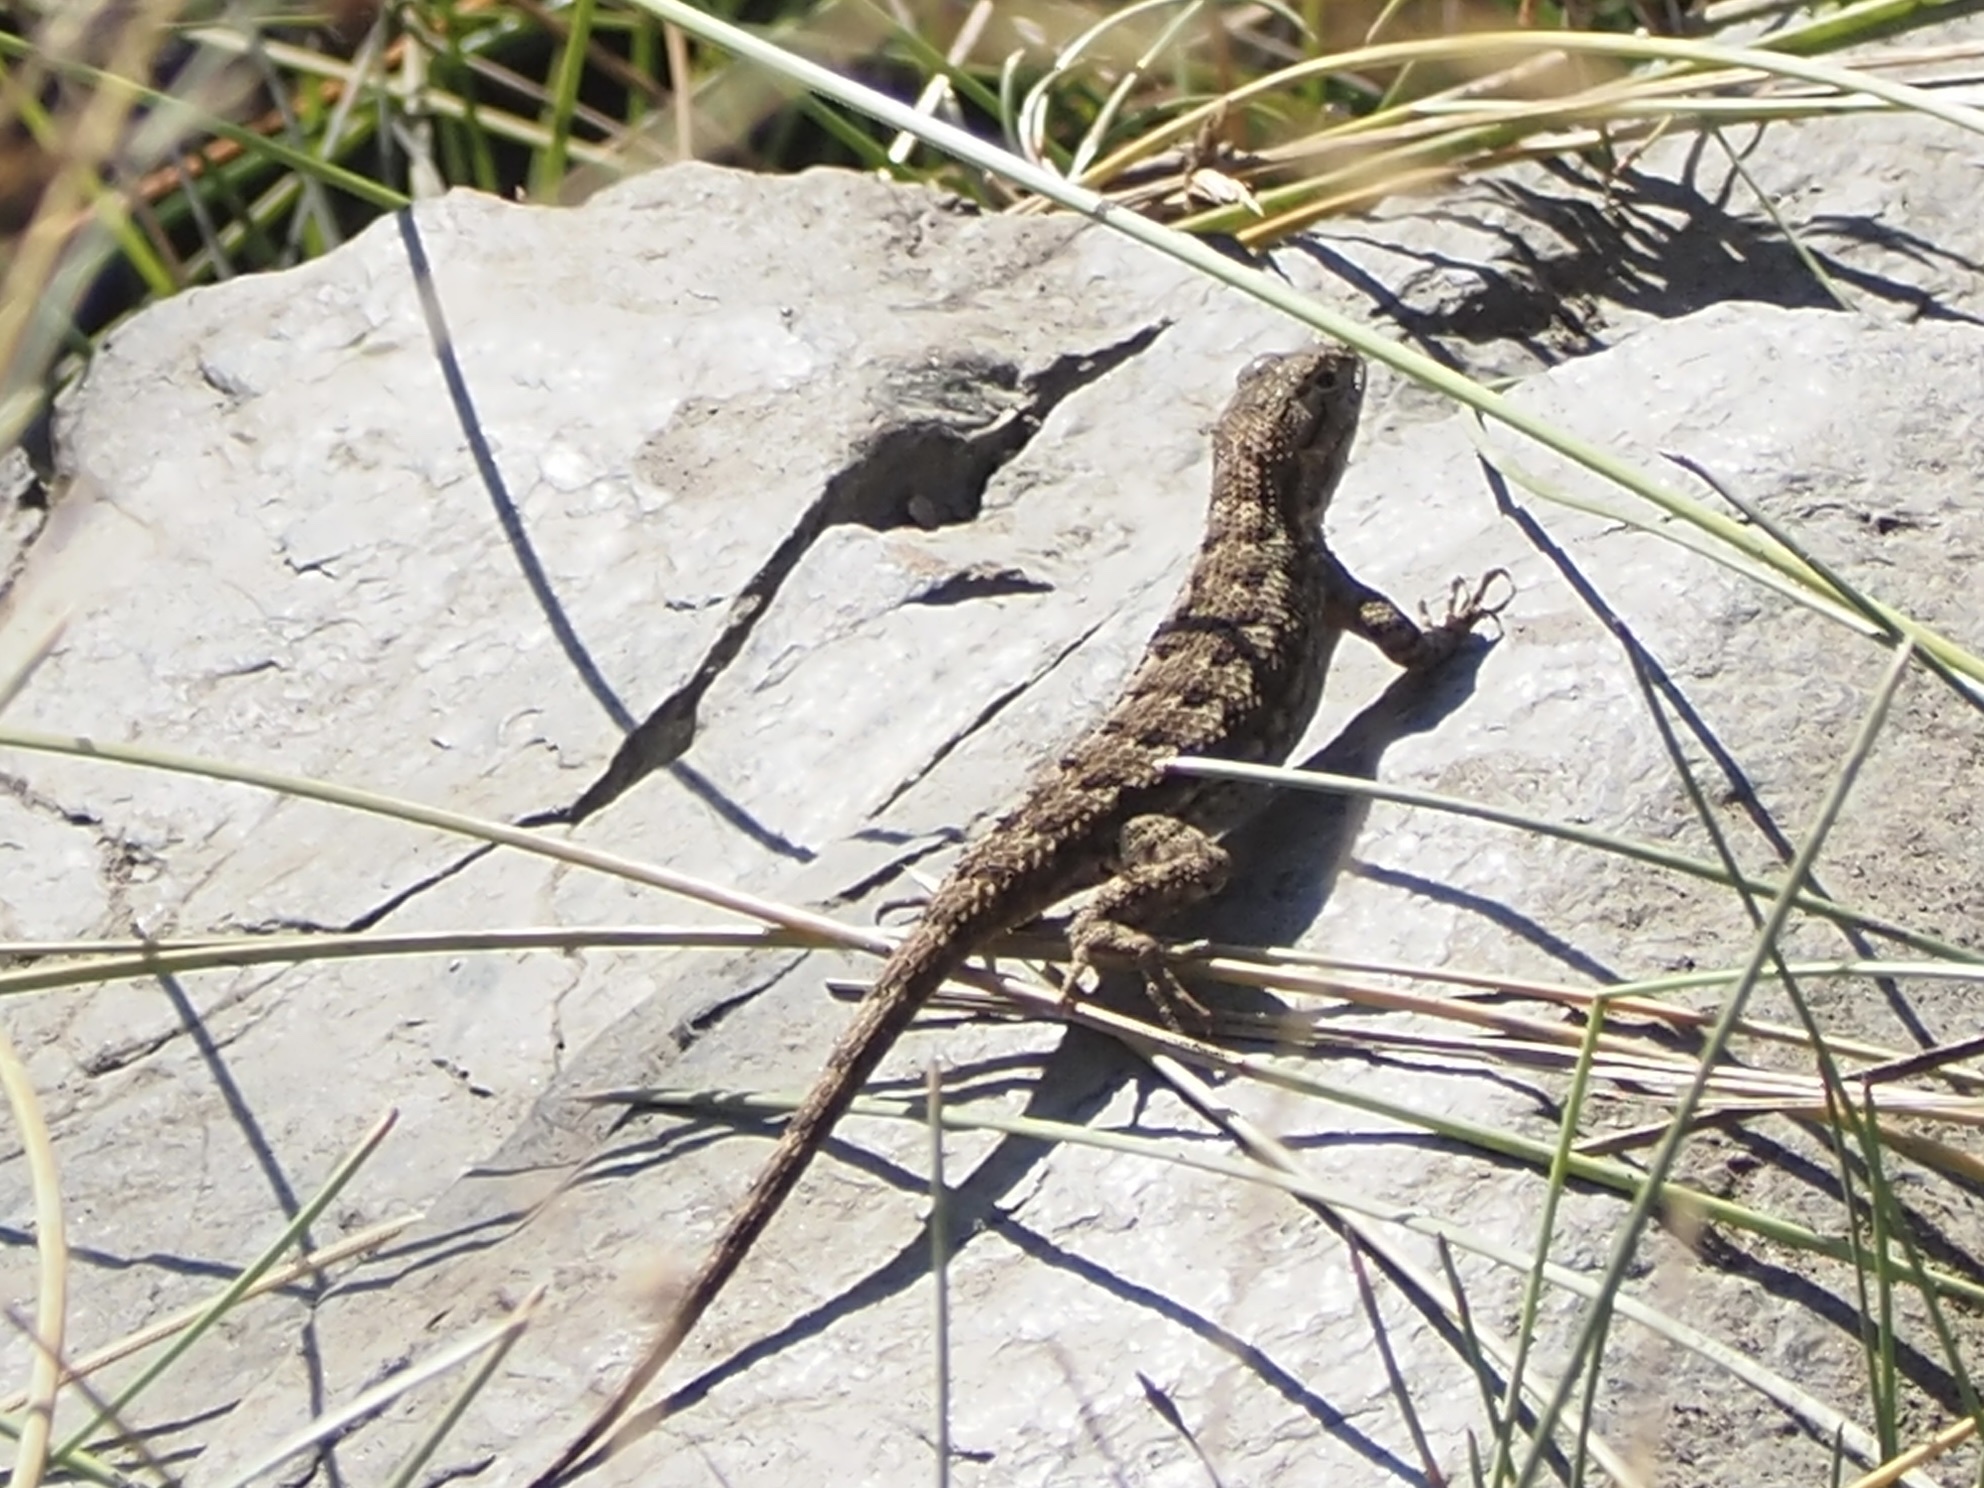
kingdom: Animalia
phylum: Chordata
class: Squamata
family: Phrynosomatidae
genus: Sceloporus
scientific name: Sceloporus occidentalis
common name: Western fence lizard
